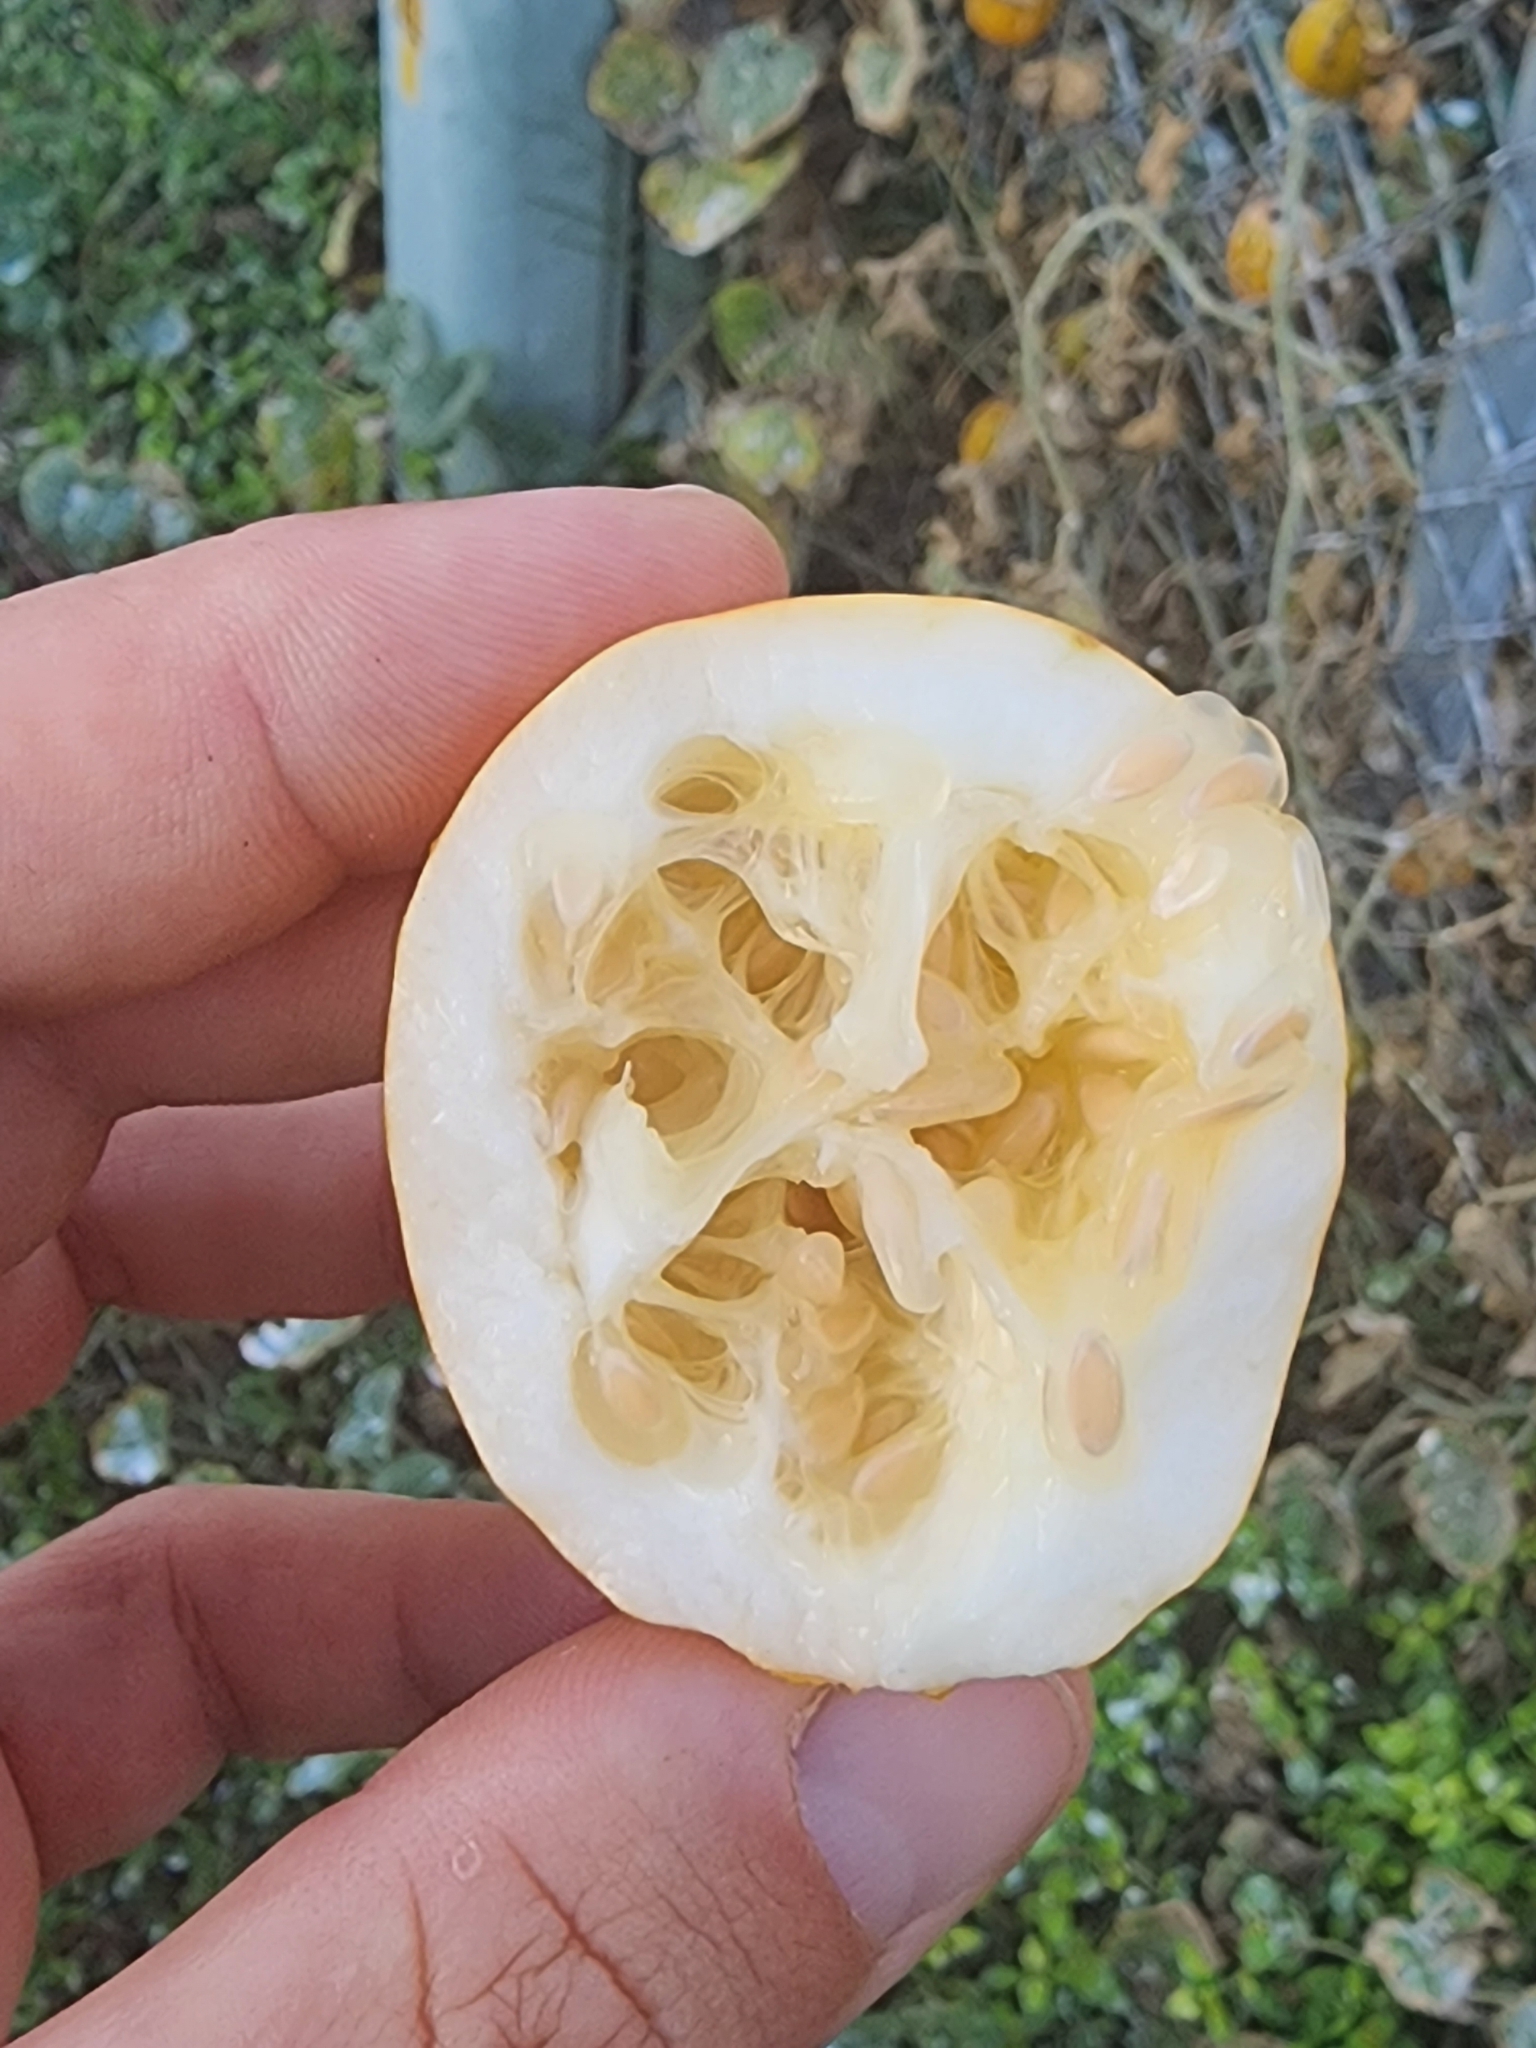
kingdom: Plantae
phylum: Tracheophyta
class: Magnoliopsida
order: Cucurbitales
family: Cucurbitaceae
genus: Cucumis
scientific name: Cucumis melo
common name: Melon
